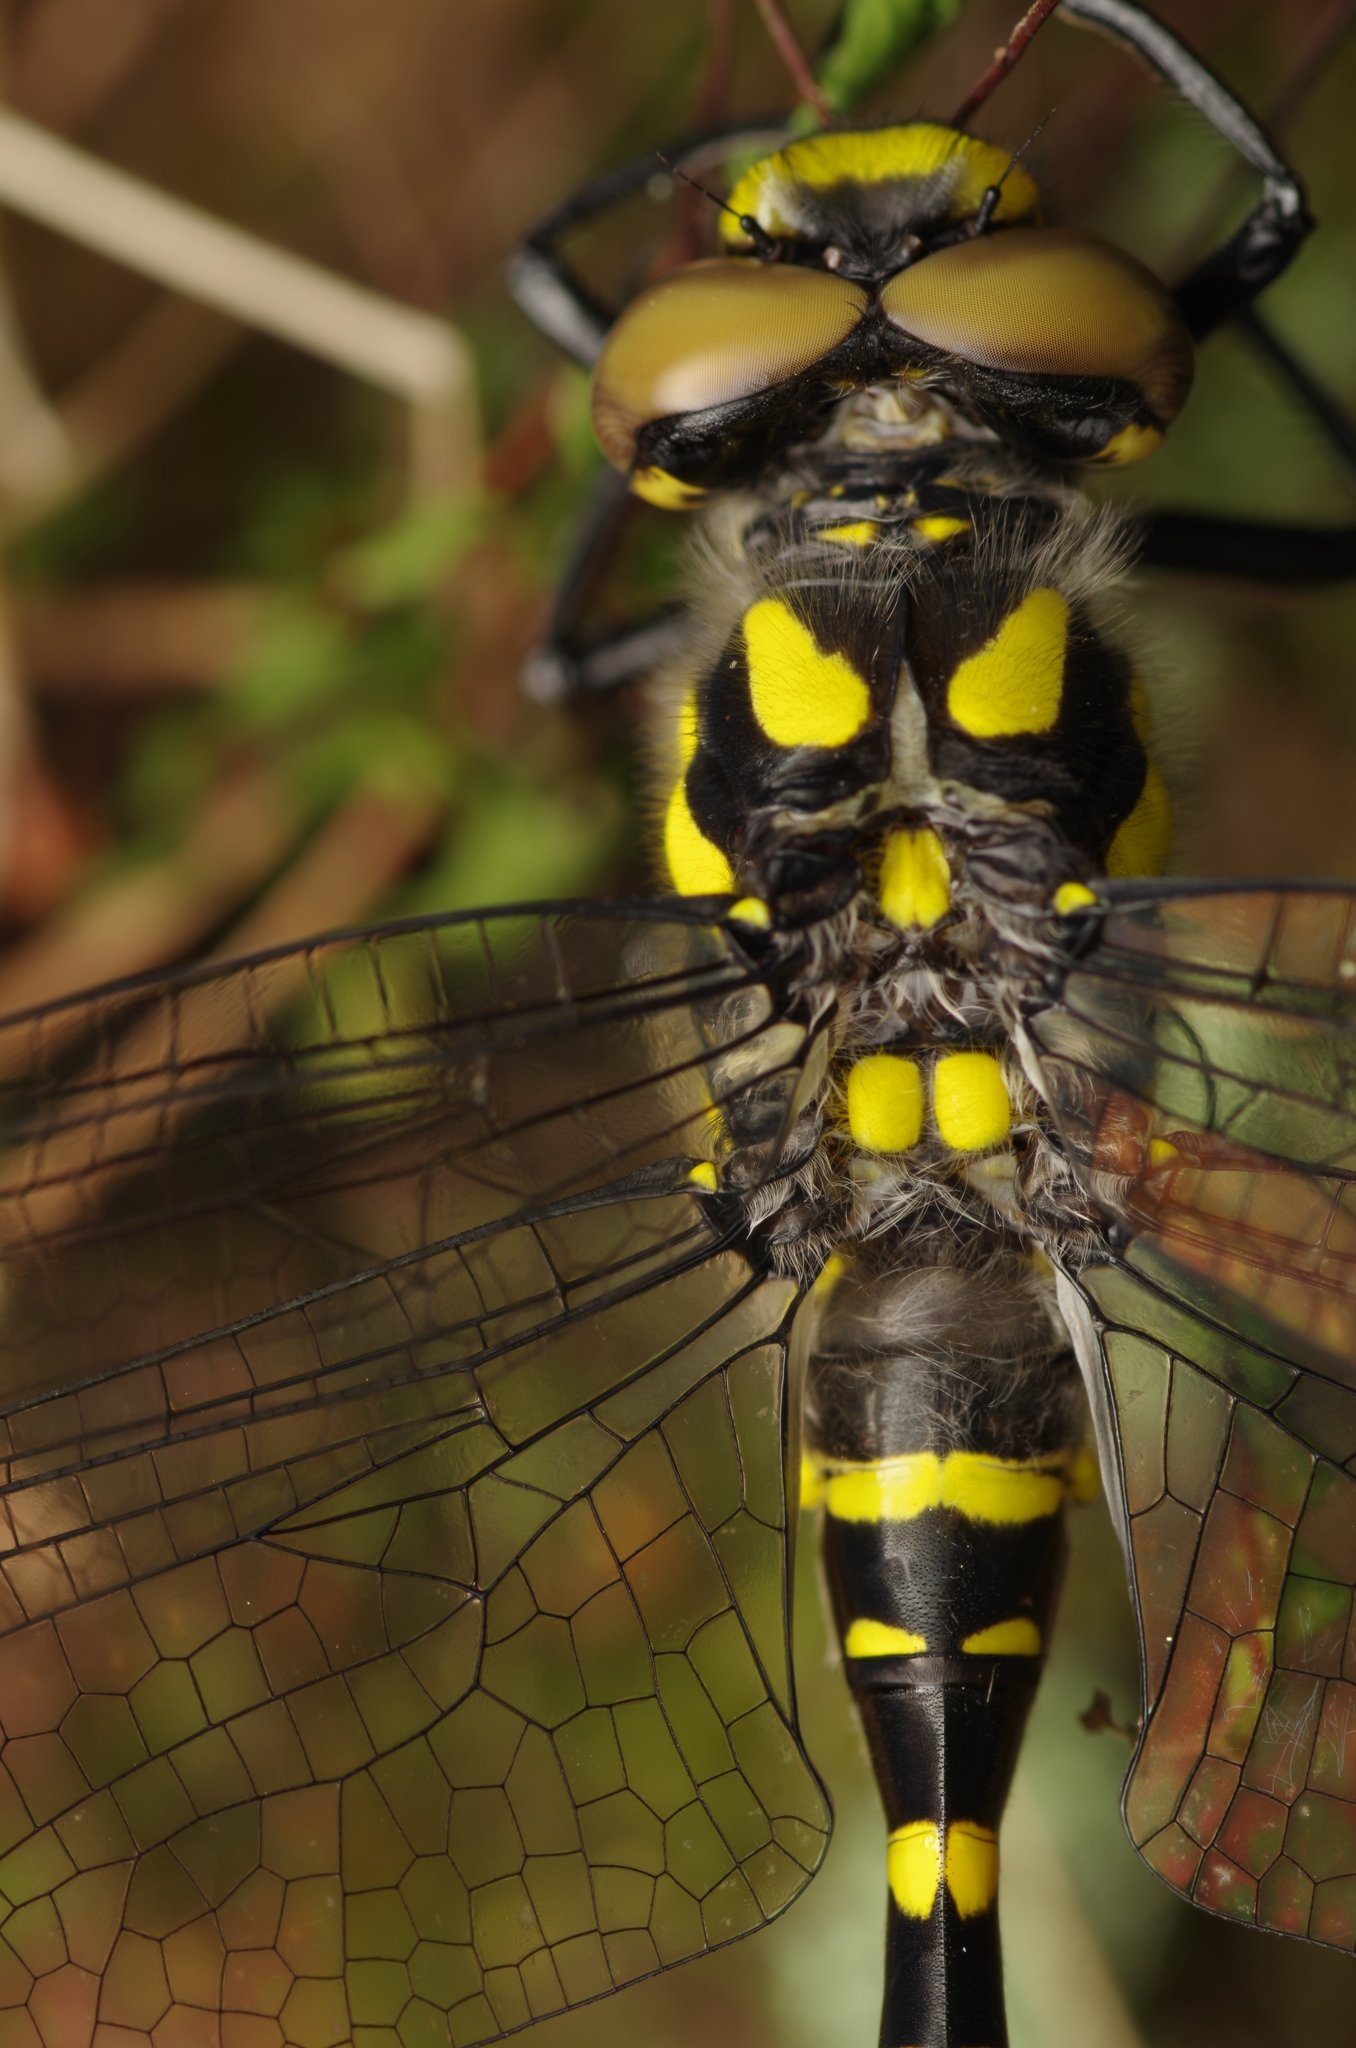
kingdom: Animalia
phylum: Arthropoda
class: Insecta
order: Odonata
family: Cordulegastridae
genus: Cordulegaster
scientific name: Cordulegaster bidentata
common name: Sombre goldenring
